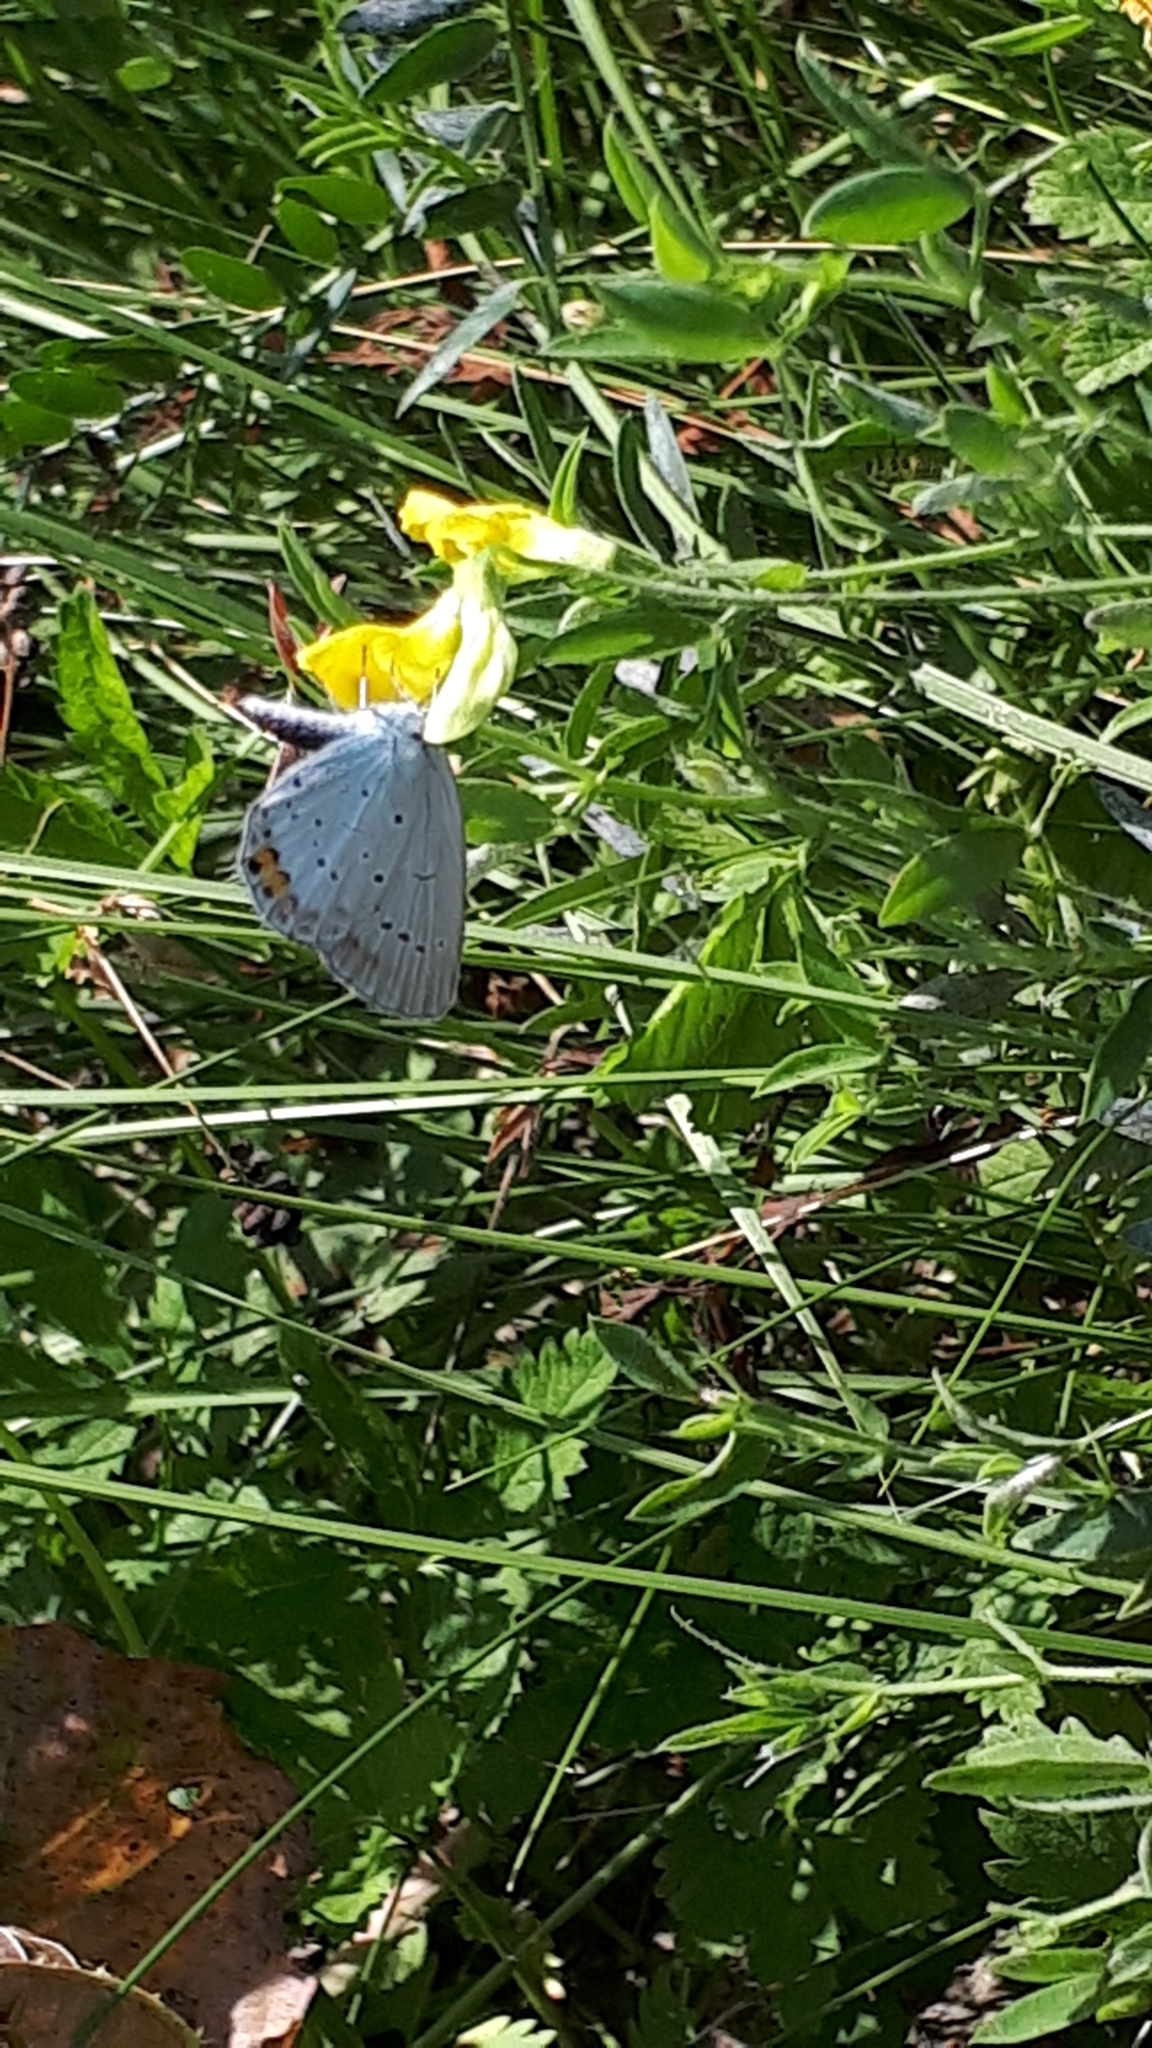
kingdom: Animalia
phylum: Arthropoda
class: Insecta
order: Lepidoptera
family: Lycaenidae
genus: Elkalyce
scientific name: Elkalyce argiades
